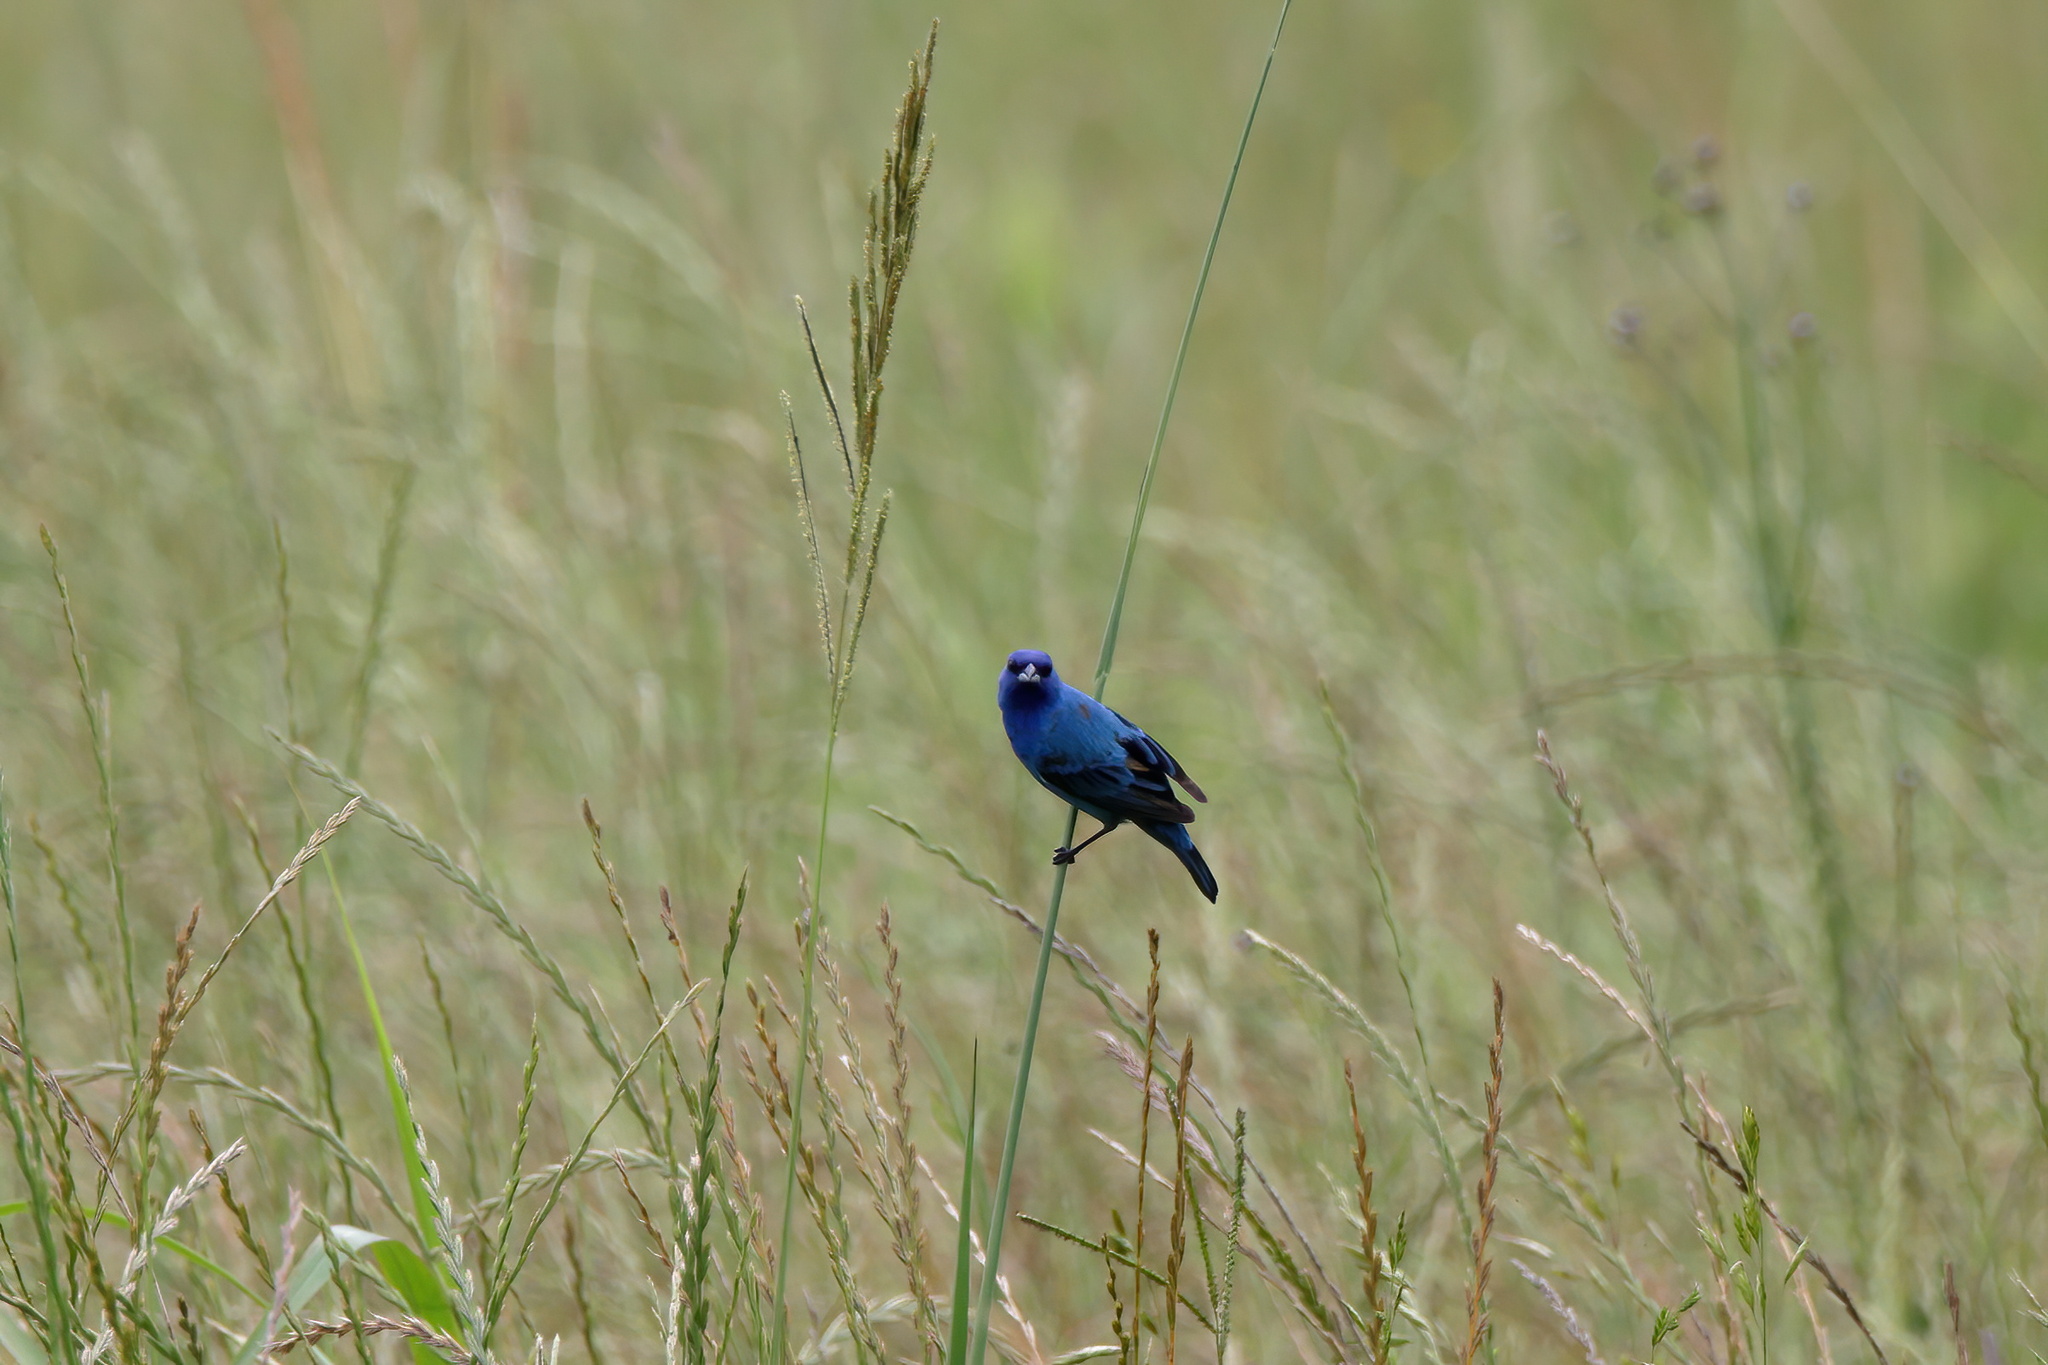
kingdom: Animalia
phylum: Chordata
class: Aves
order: Passeriformes
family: Cardinalidae
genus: Passerina
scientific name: Passerina cyanea
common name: Indigo bunting
